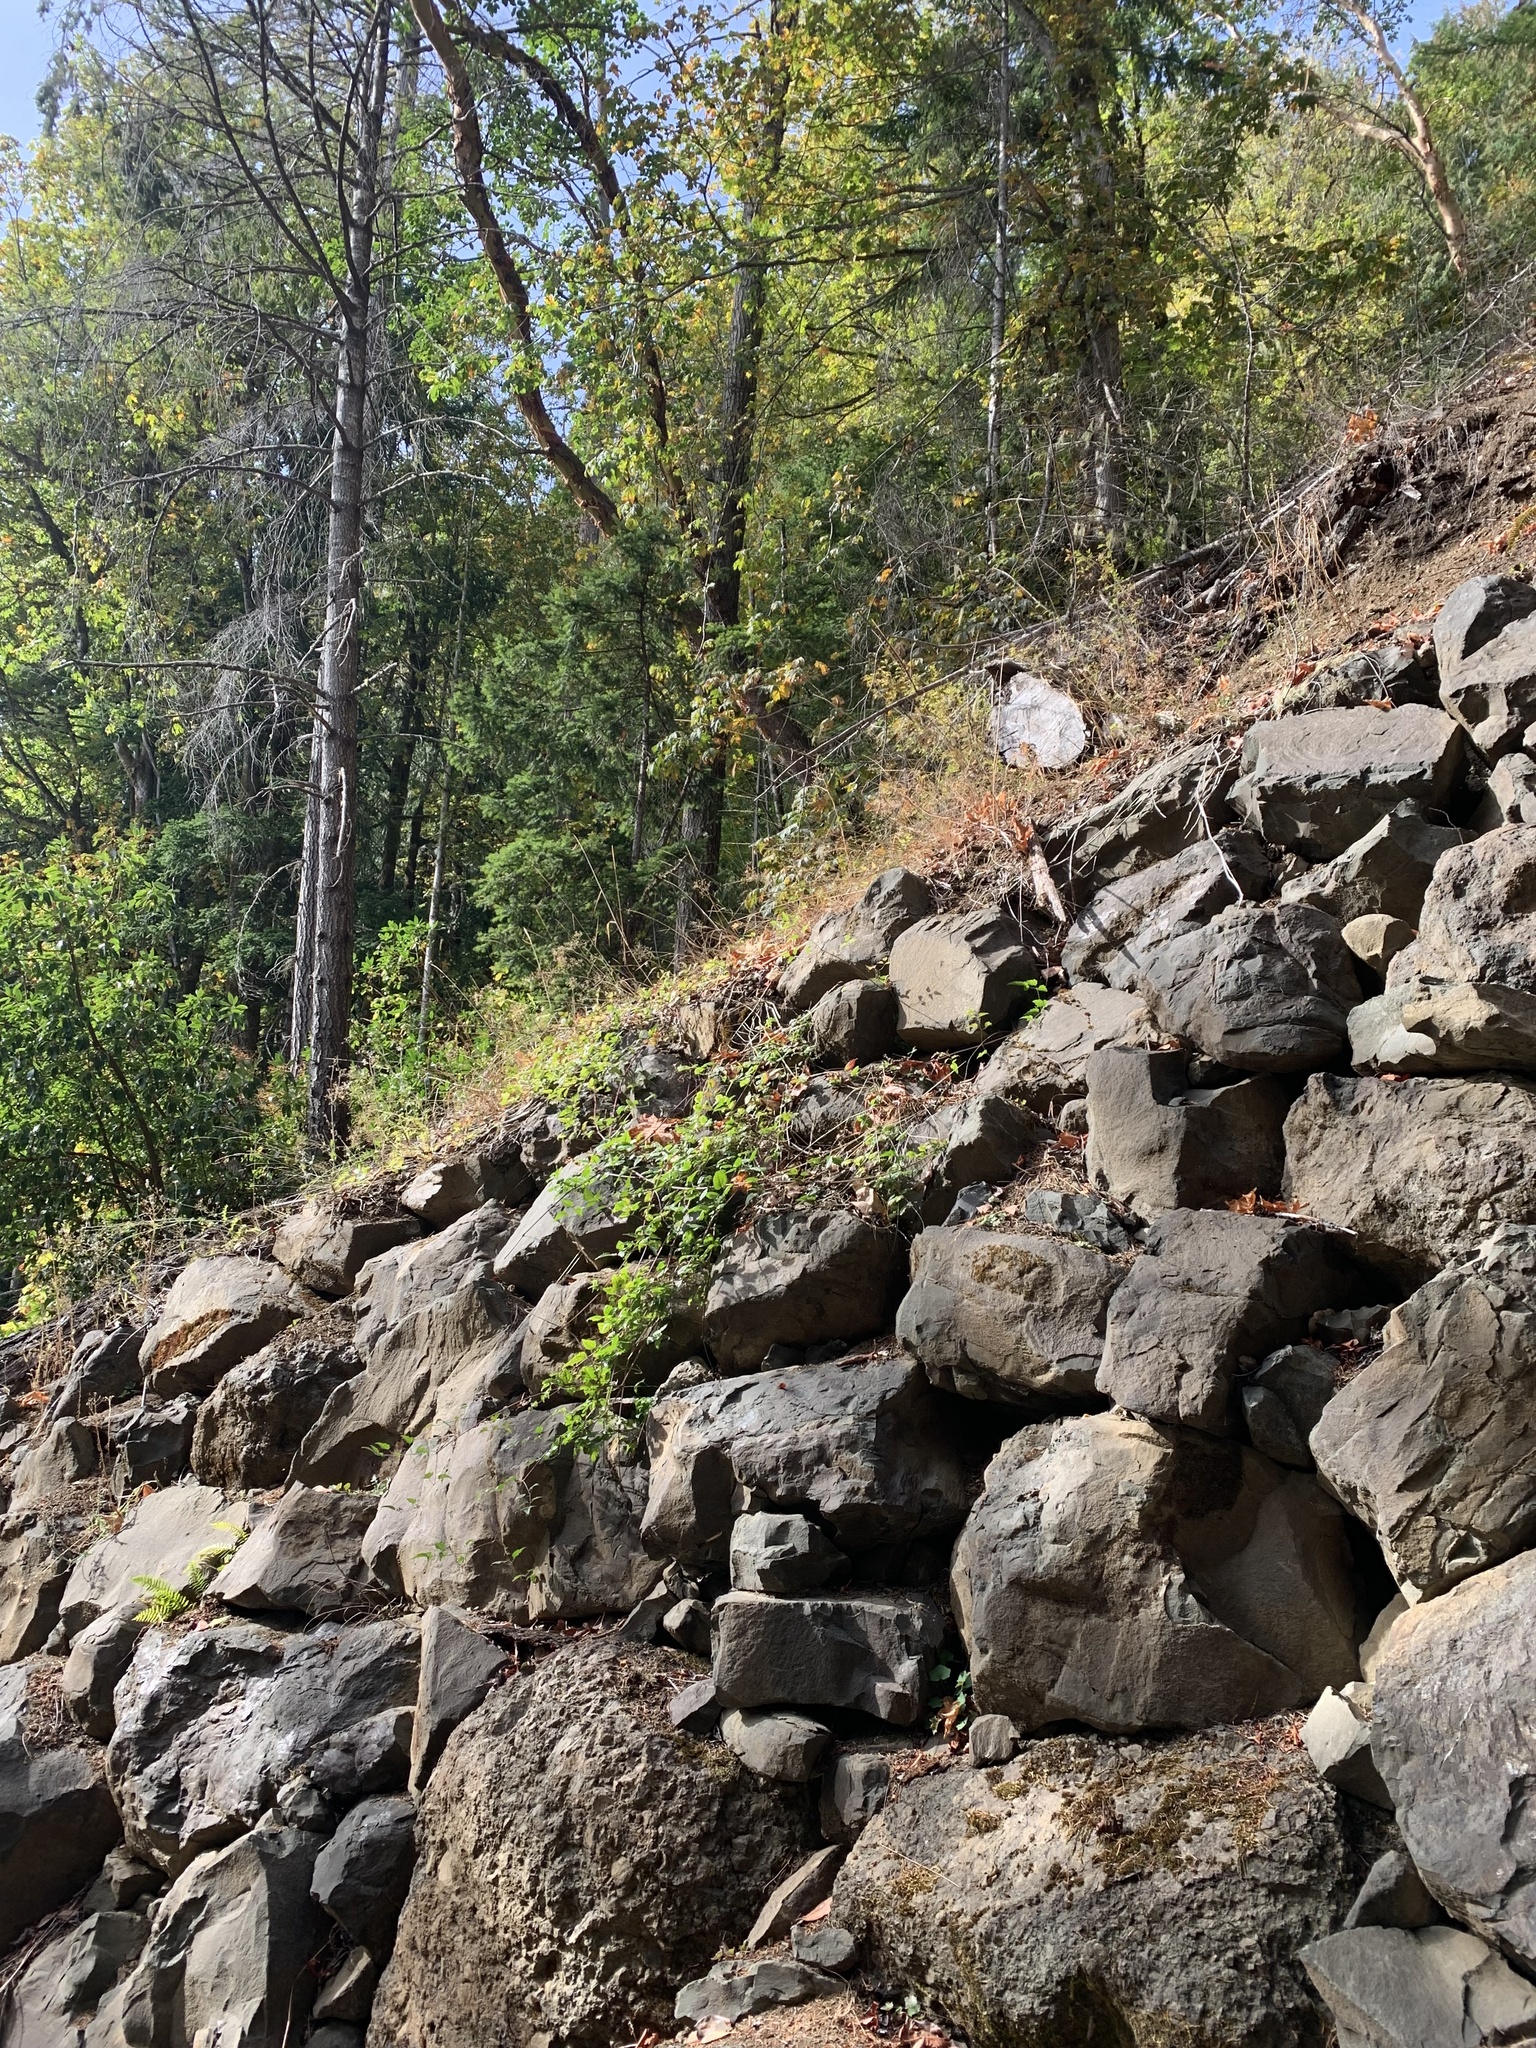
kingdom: Plantae
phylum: Tracheophyta
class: Magnoliopsida
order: Ranunculales
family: Ranunculaceae
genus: Clematis
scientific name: Clematis vitalba
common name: Evergreen clematis
